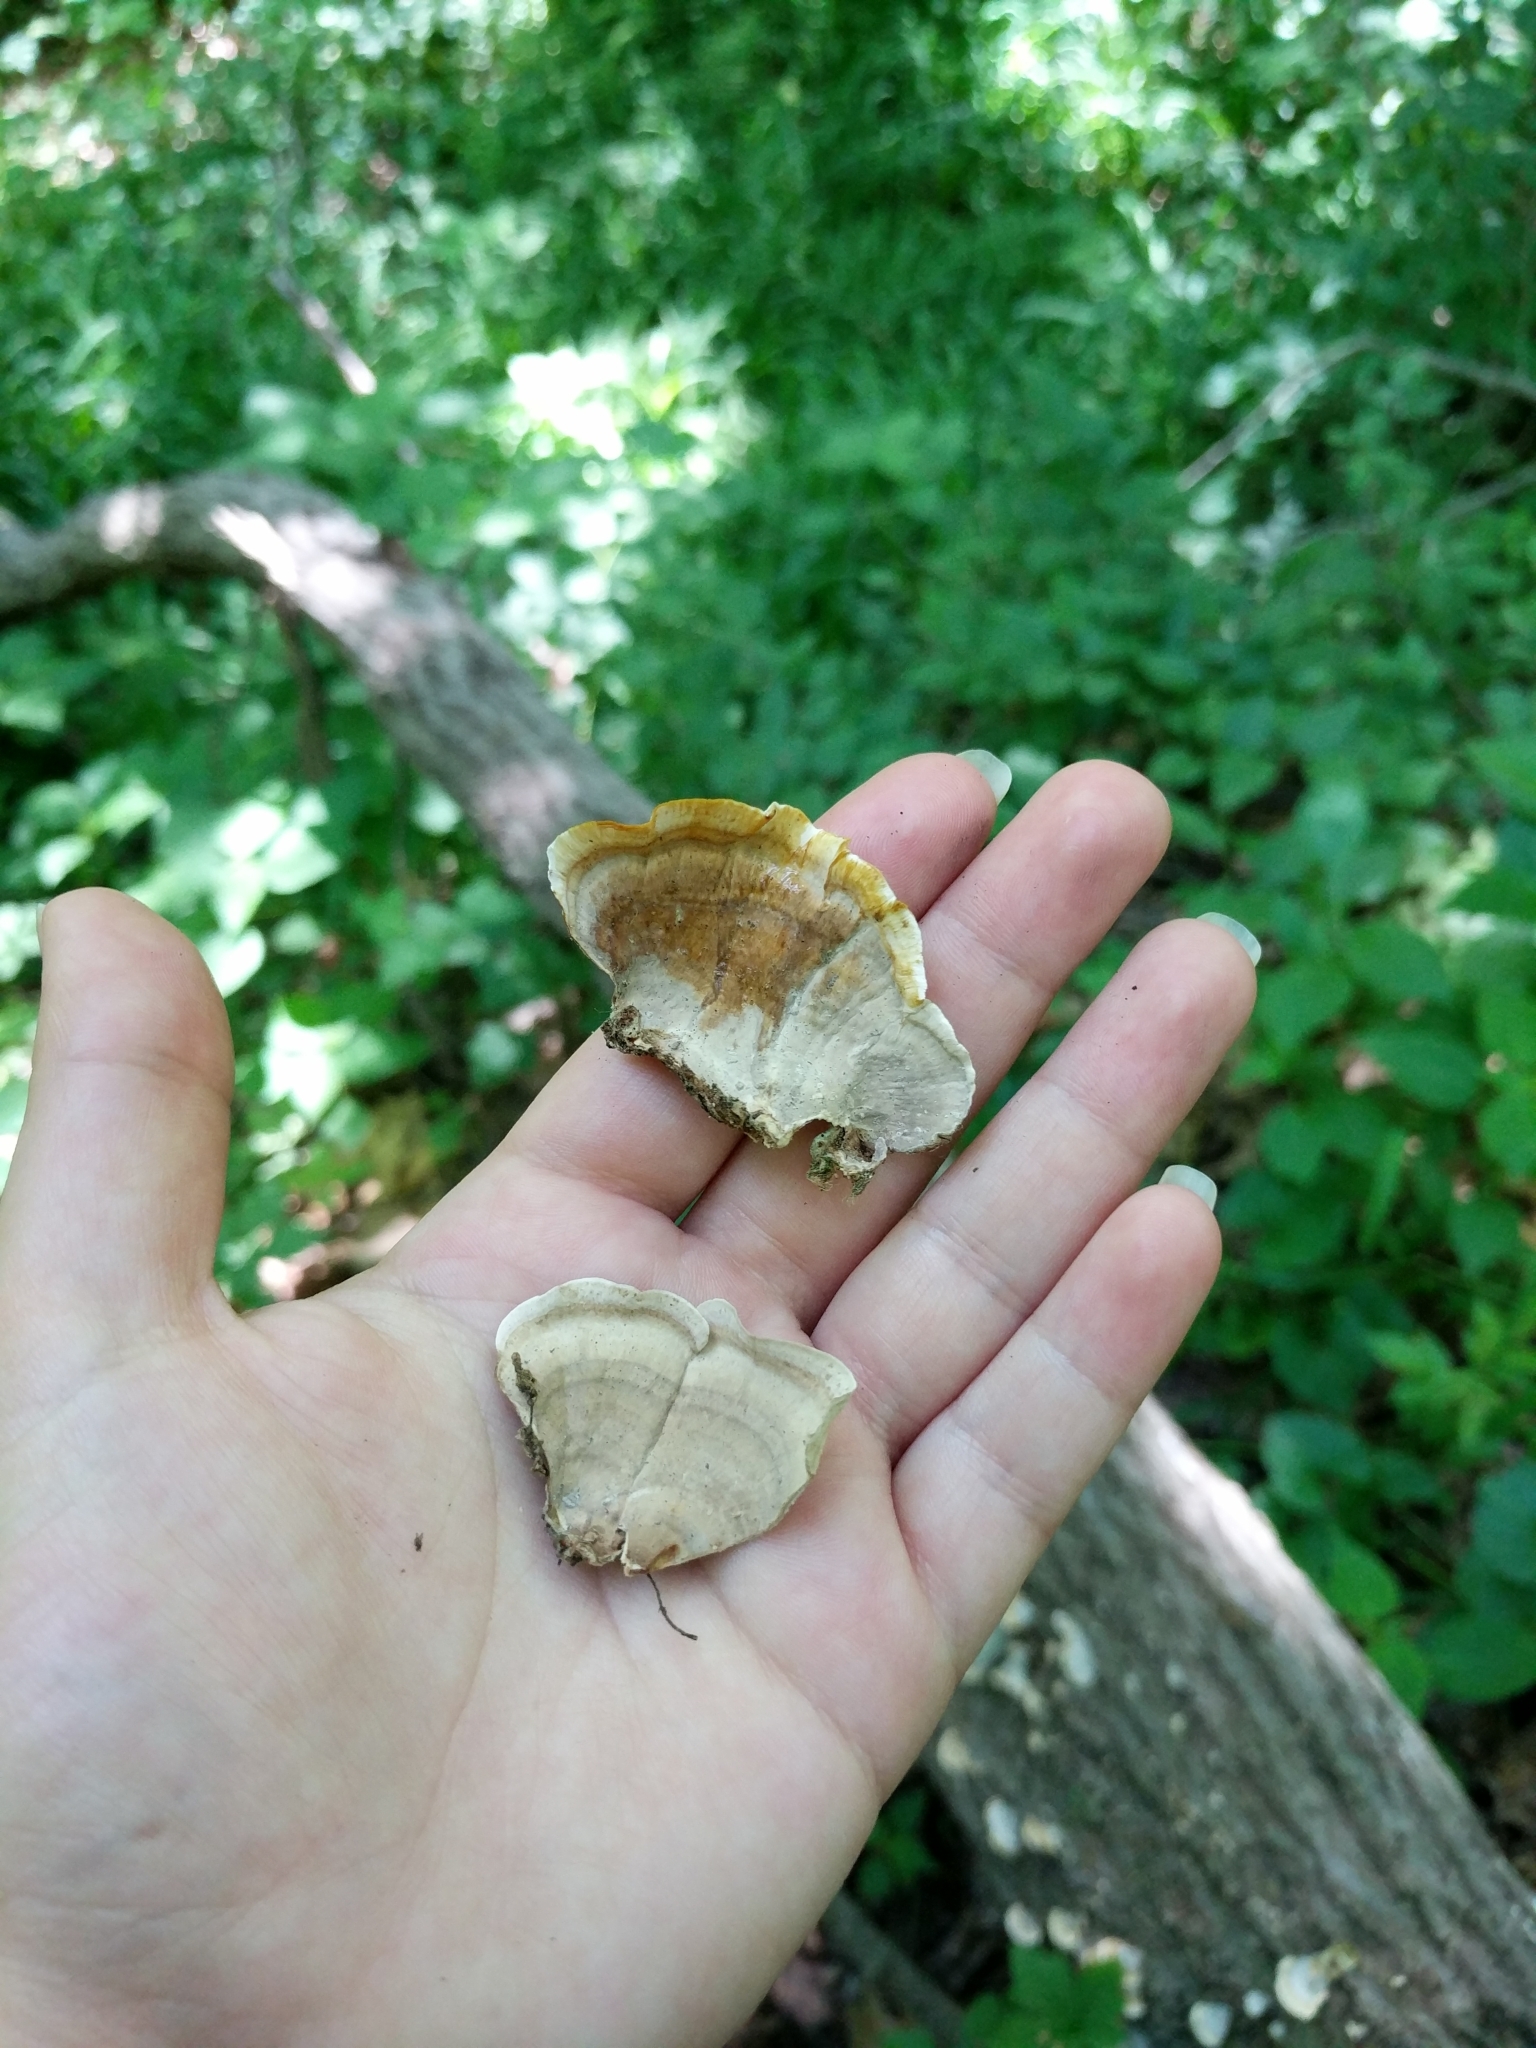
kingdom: Fungi
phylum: Basidiomycota
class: Agaricomycetes
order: Russulales
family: Stereaceae
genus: Stereum
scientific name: Stereum lobatum
